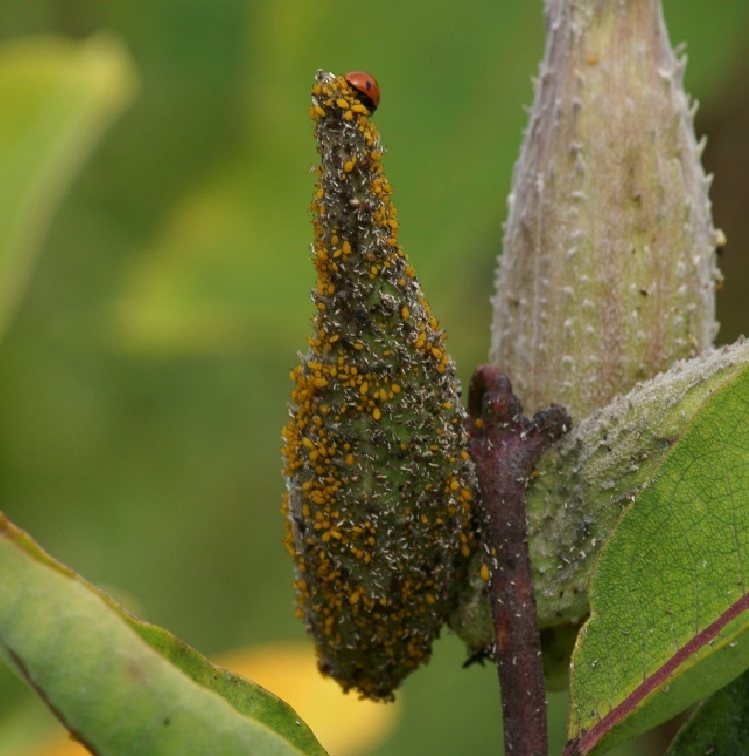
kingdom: Animalia
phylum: Arthropoda
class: Insecta
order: Hemiptera
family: Aphididae
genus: Aphis
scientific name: Aphis nerii
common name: Oleander aphid
